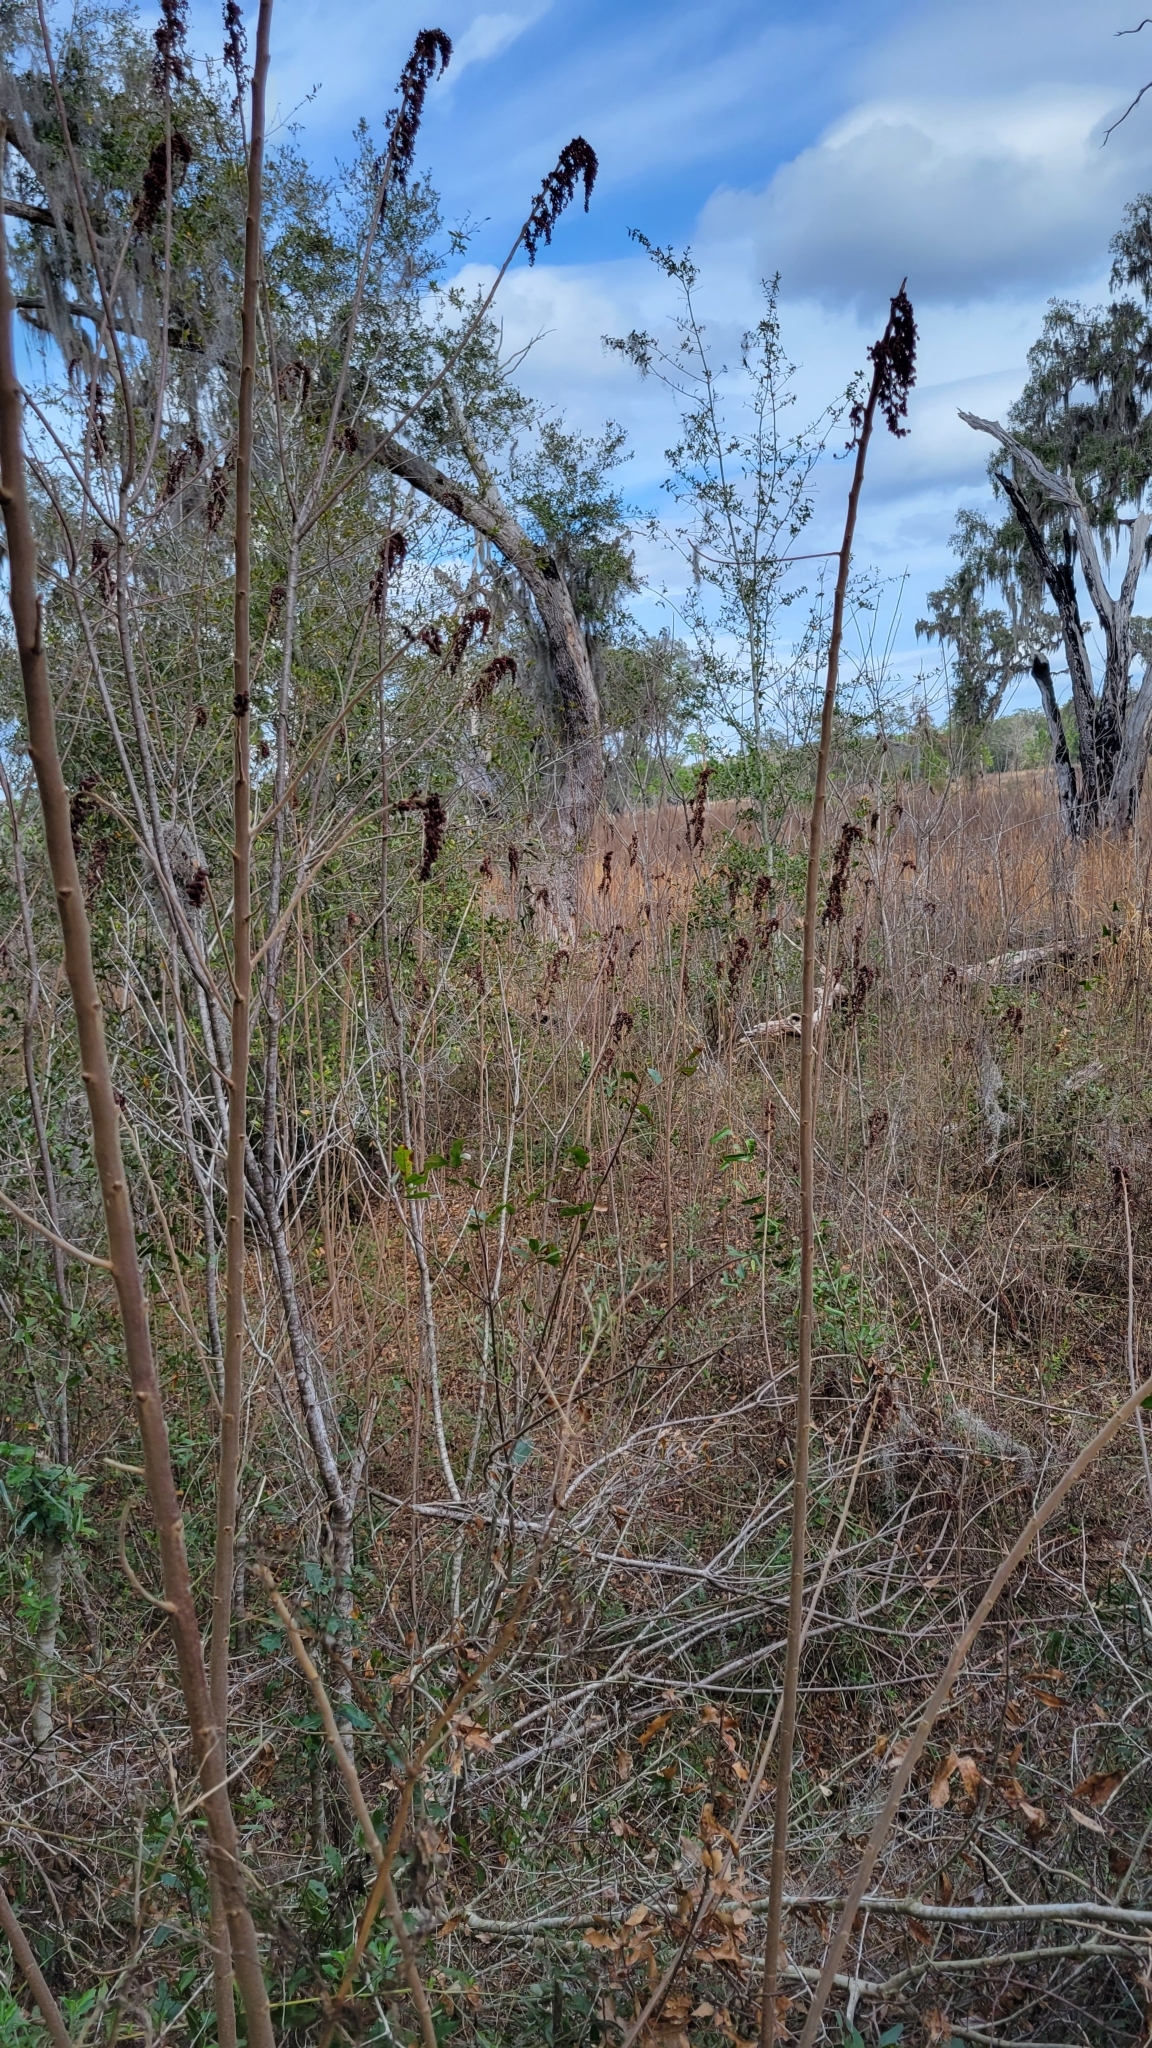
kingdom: Plantae
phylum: Tracheophyta
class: Magnoliopsida
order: Sapindales
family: Anacardiaceae
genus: Rhus
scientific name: Rhus copallina
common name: Shining sumac
